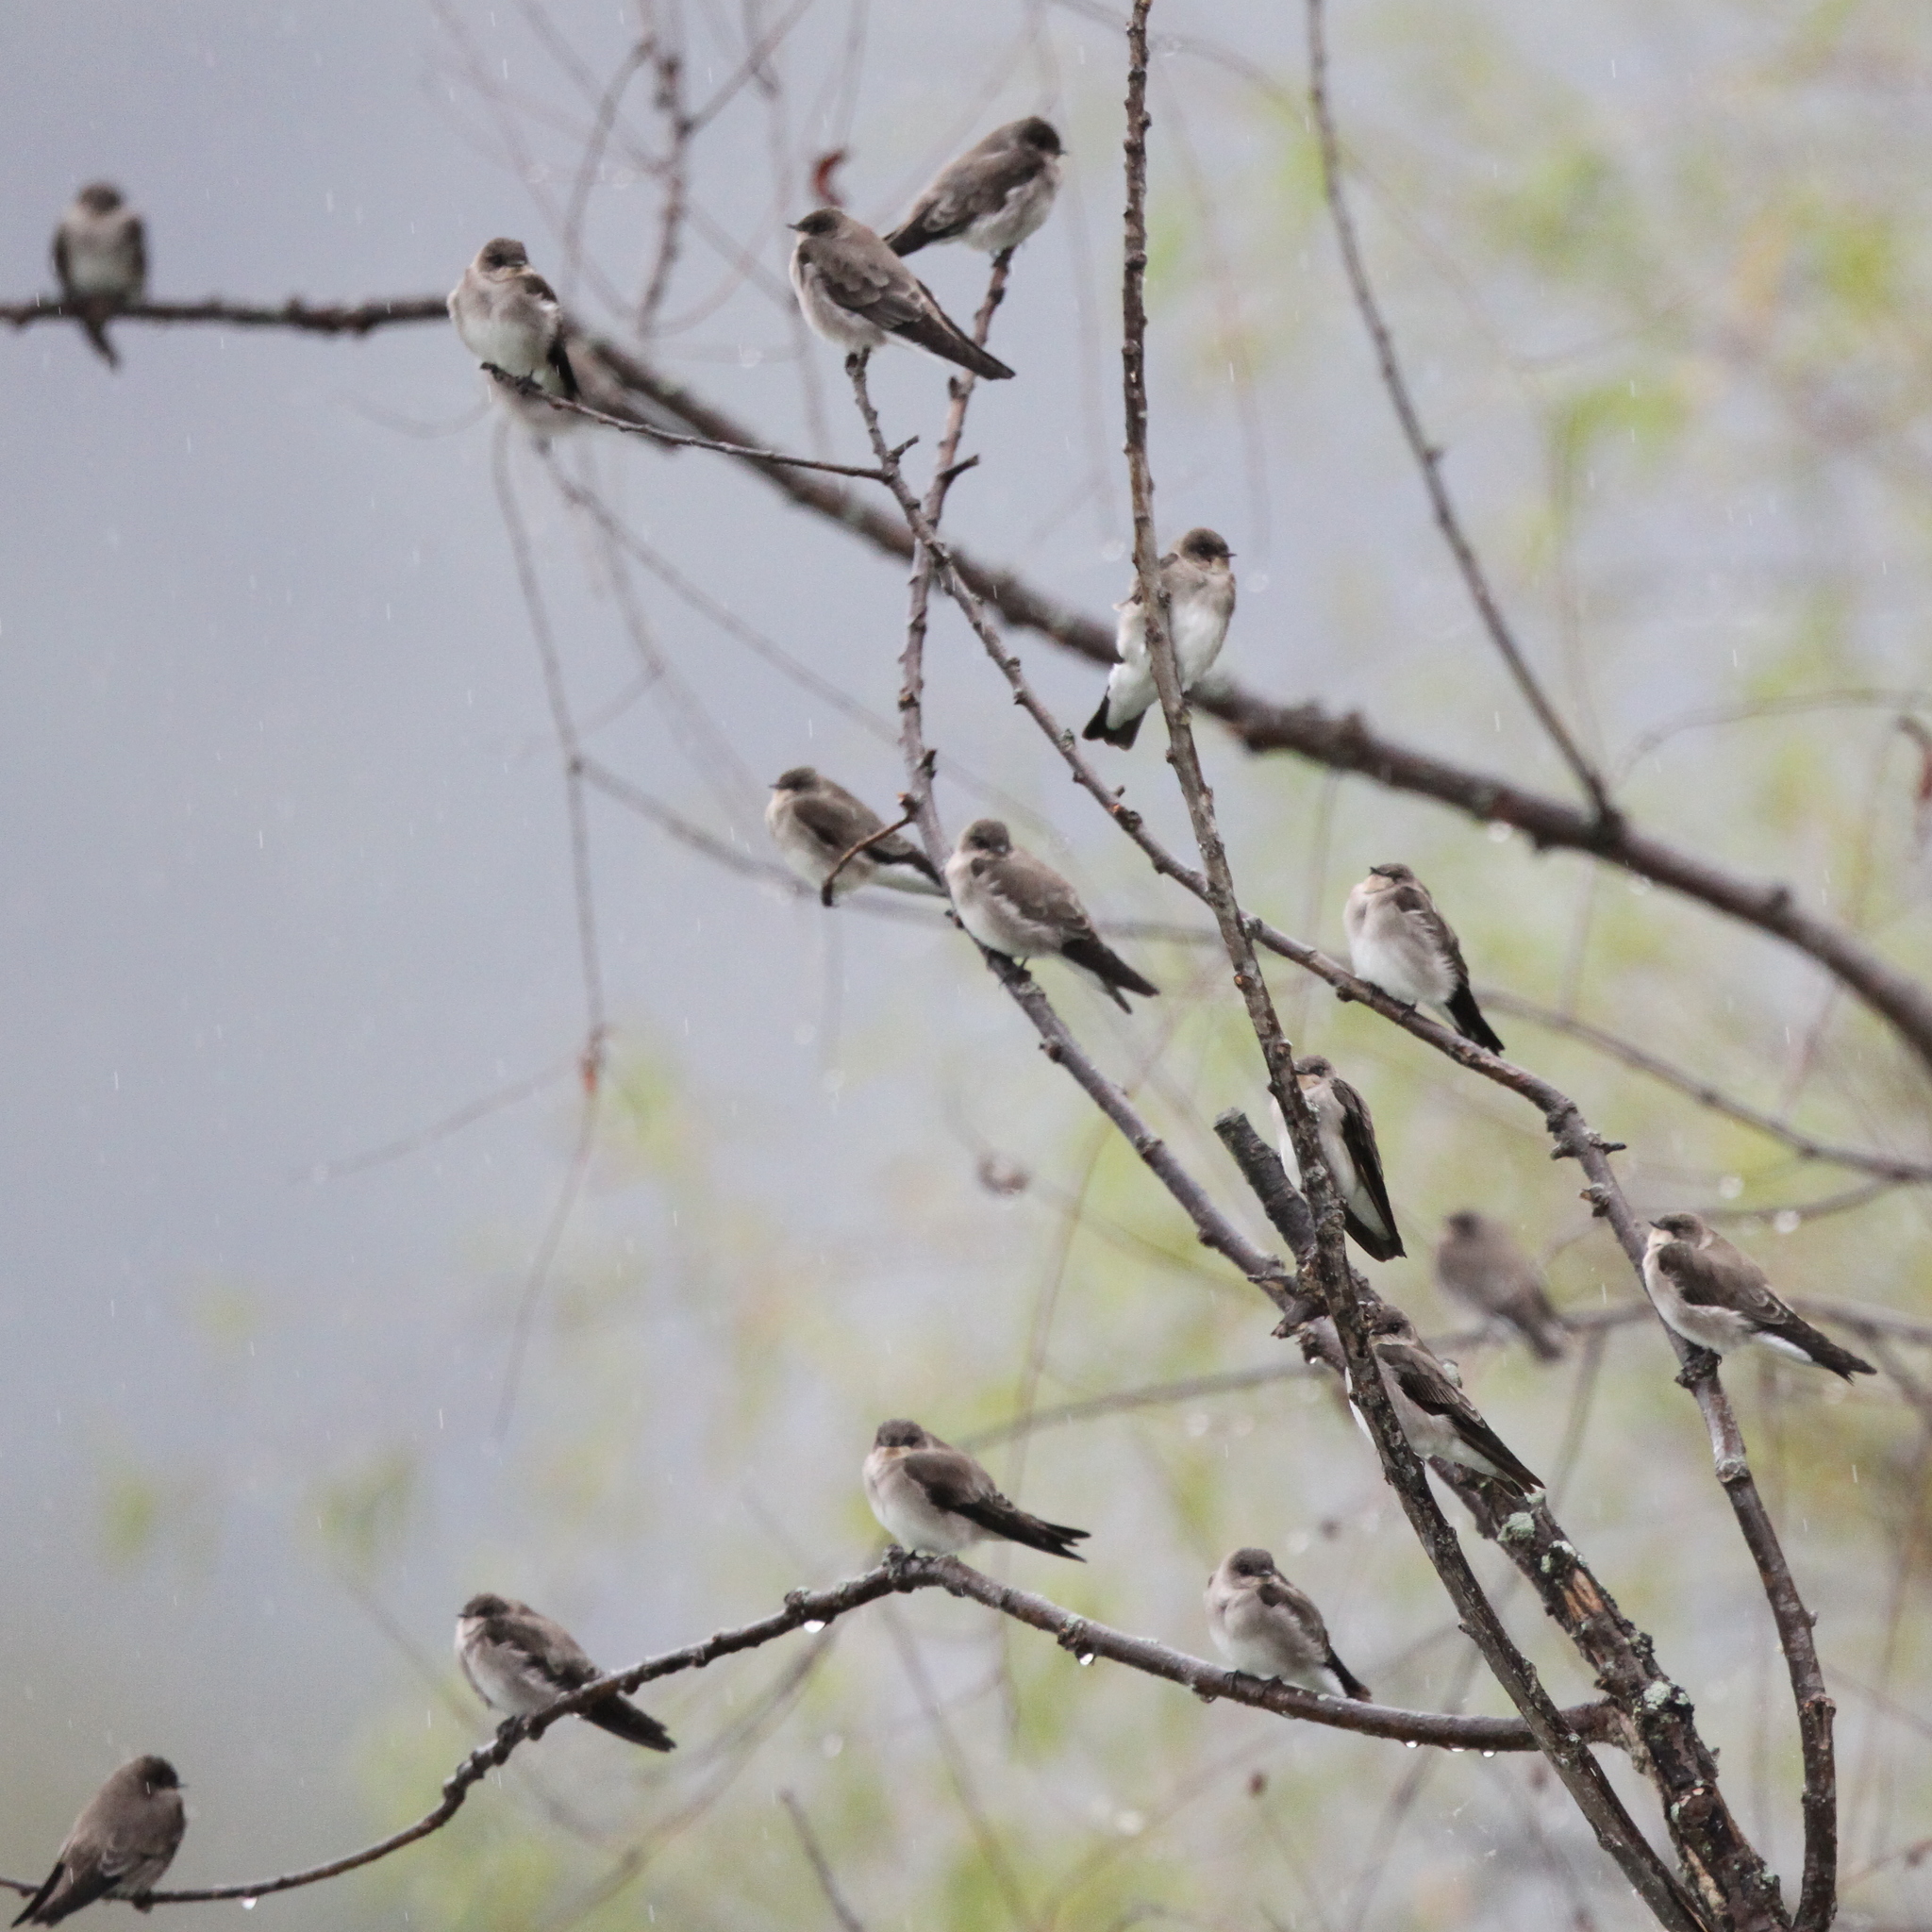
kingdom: Animalia
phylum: Chordata
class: Aves
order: Passeriformes
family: Hirundinidae
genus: Tachycineta
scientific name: Tachycineta bicolor
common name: Tree swallow
